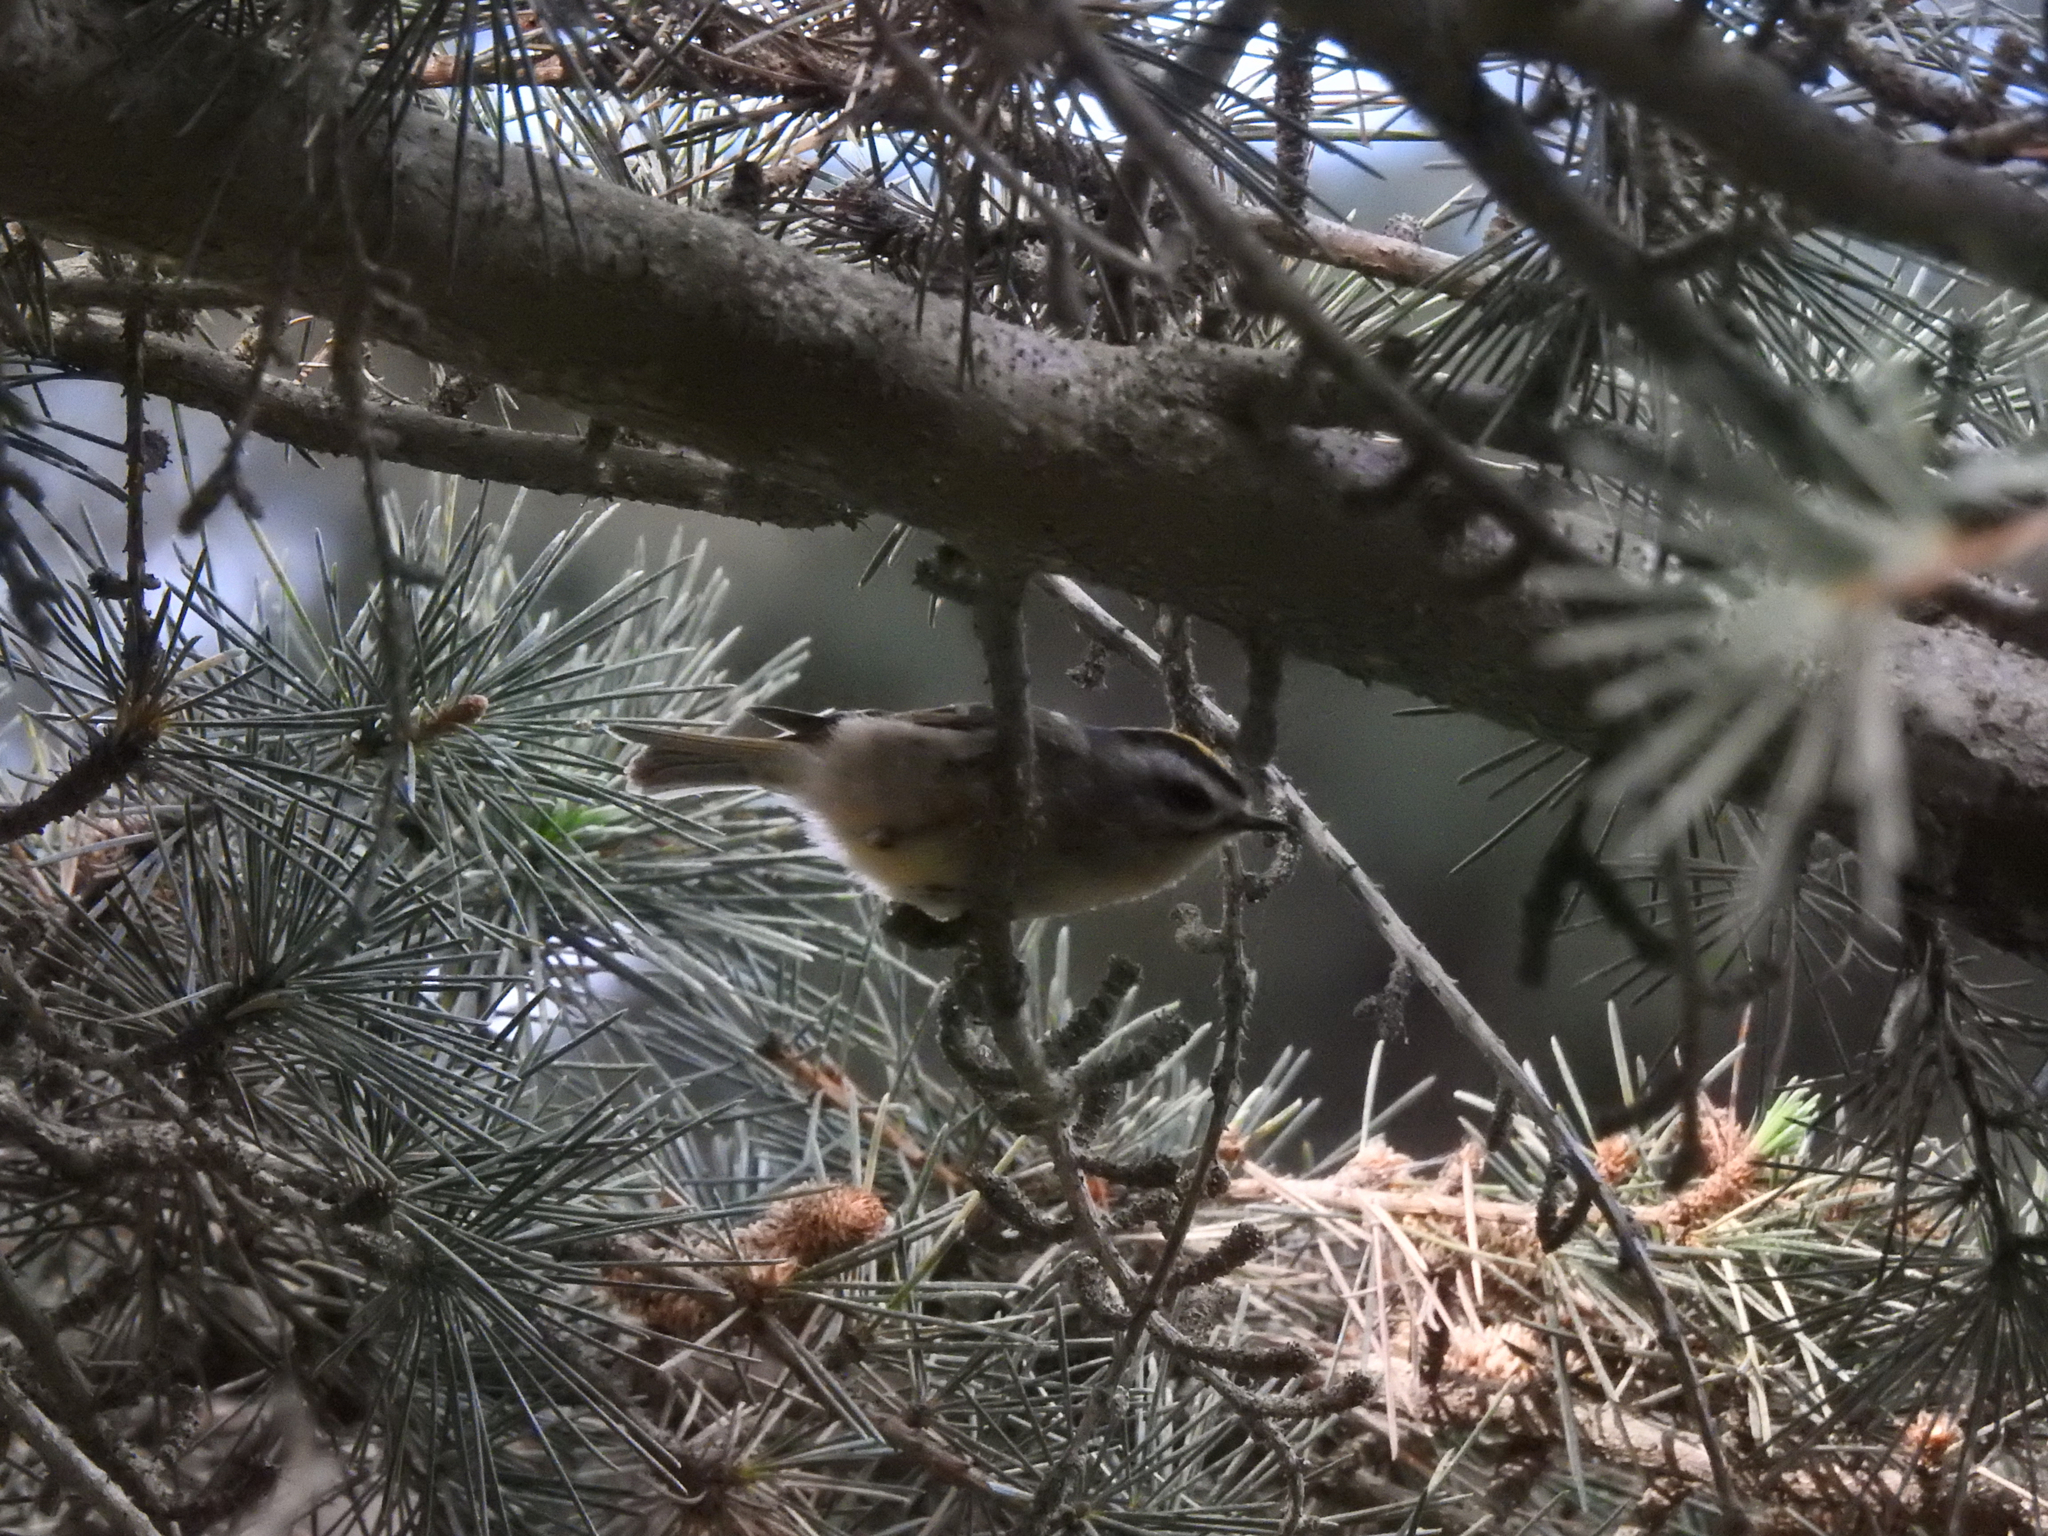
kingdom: Animalia
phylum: Chordata
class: Aves
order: Passeriformes
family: Regulidae
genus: Regulus
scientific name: Regulus satrapa
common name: Golden-crowned kinglet
